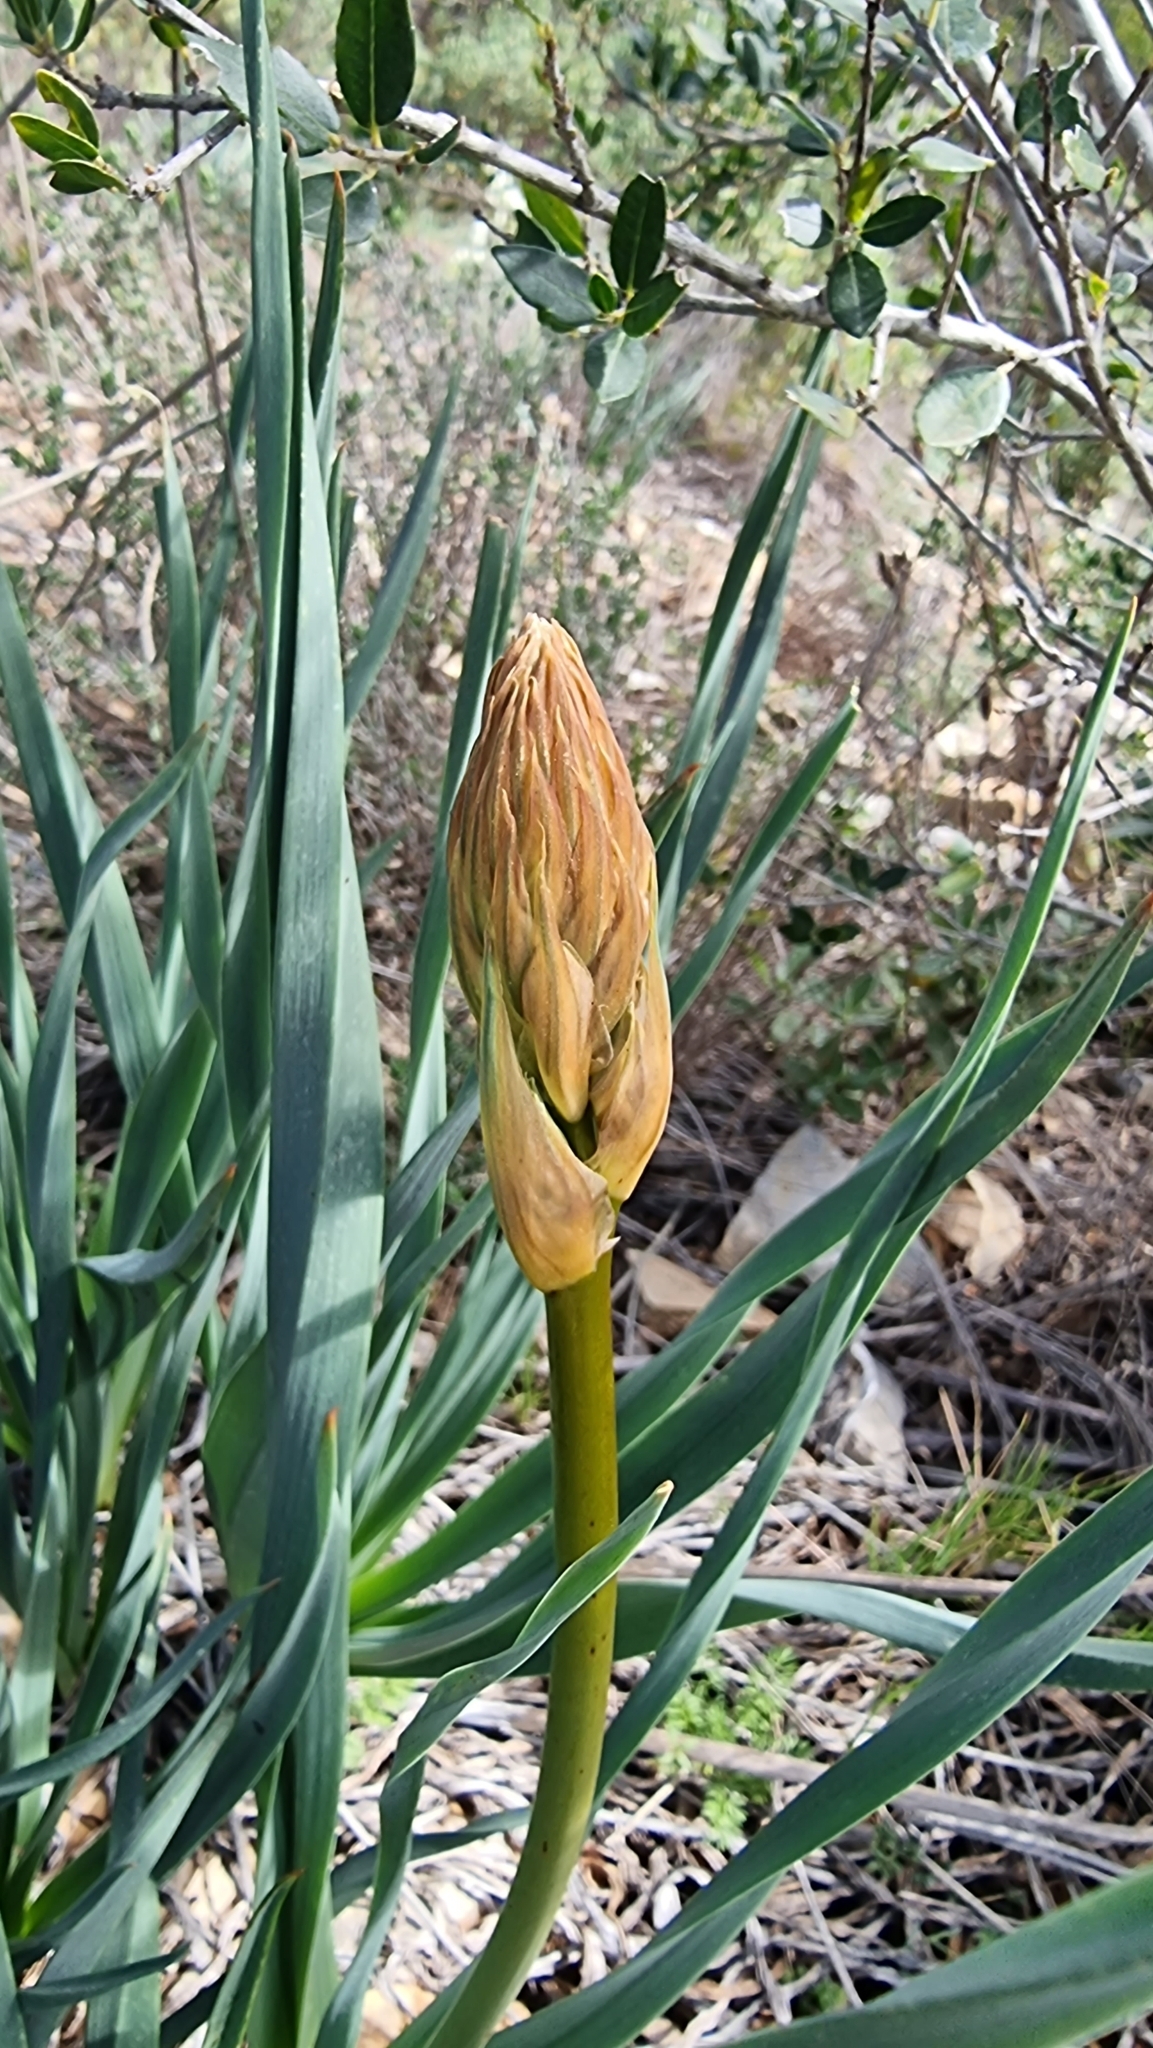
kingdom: Plantae
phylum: Tracheophyta
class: Liliopsida
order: Asparagales
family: Asphodelaceae
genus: Asphodelus
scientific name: Asphodelus cerasifer
